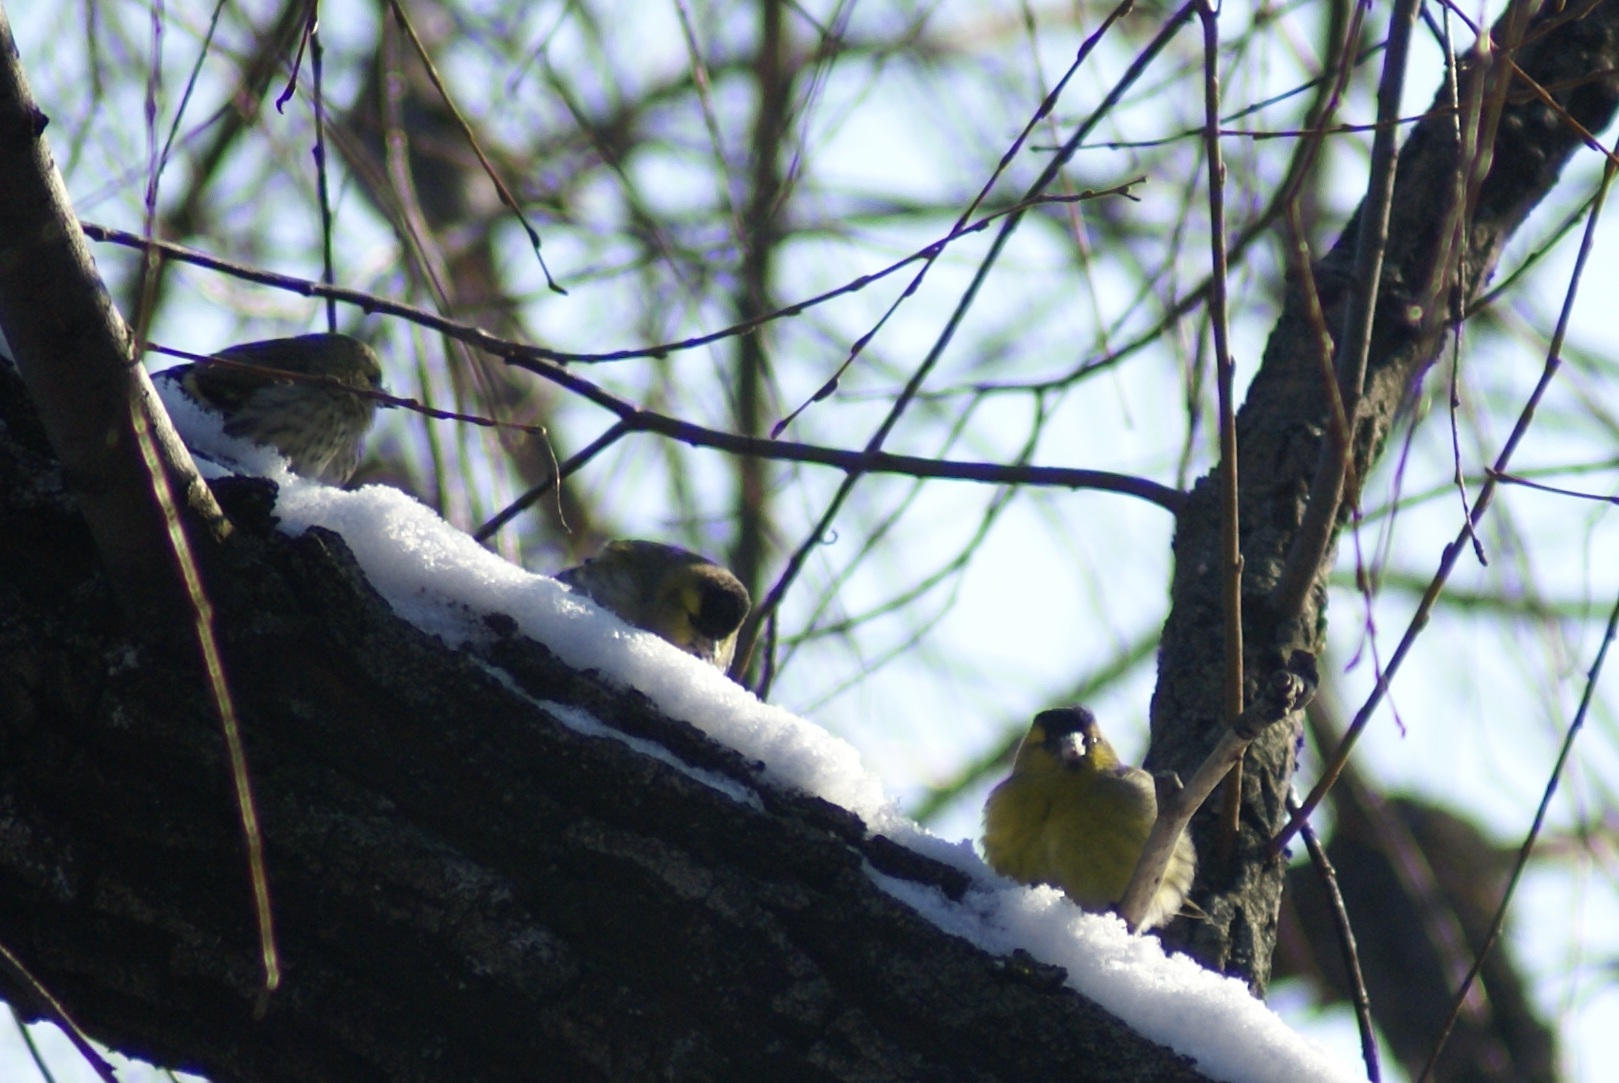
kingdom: Animalia
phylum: Chordata
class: Aves
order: Passeriformes
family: Fringillidae
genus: Spinus
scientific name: Spinus spinus
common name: Eurasian siskin
